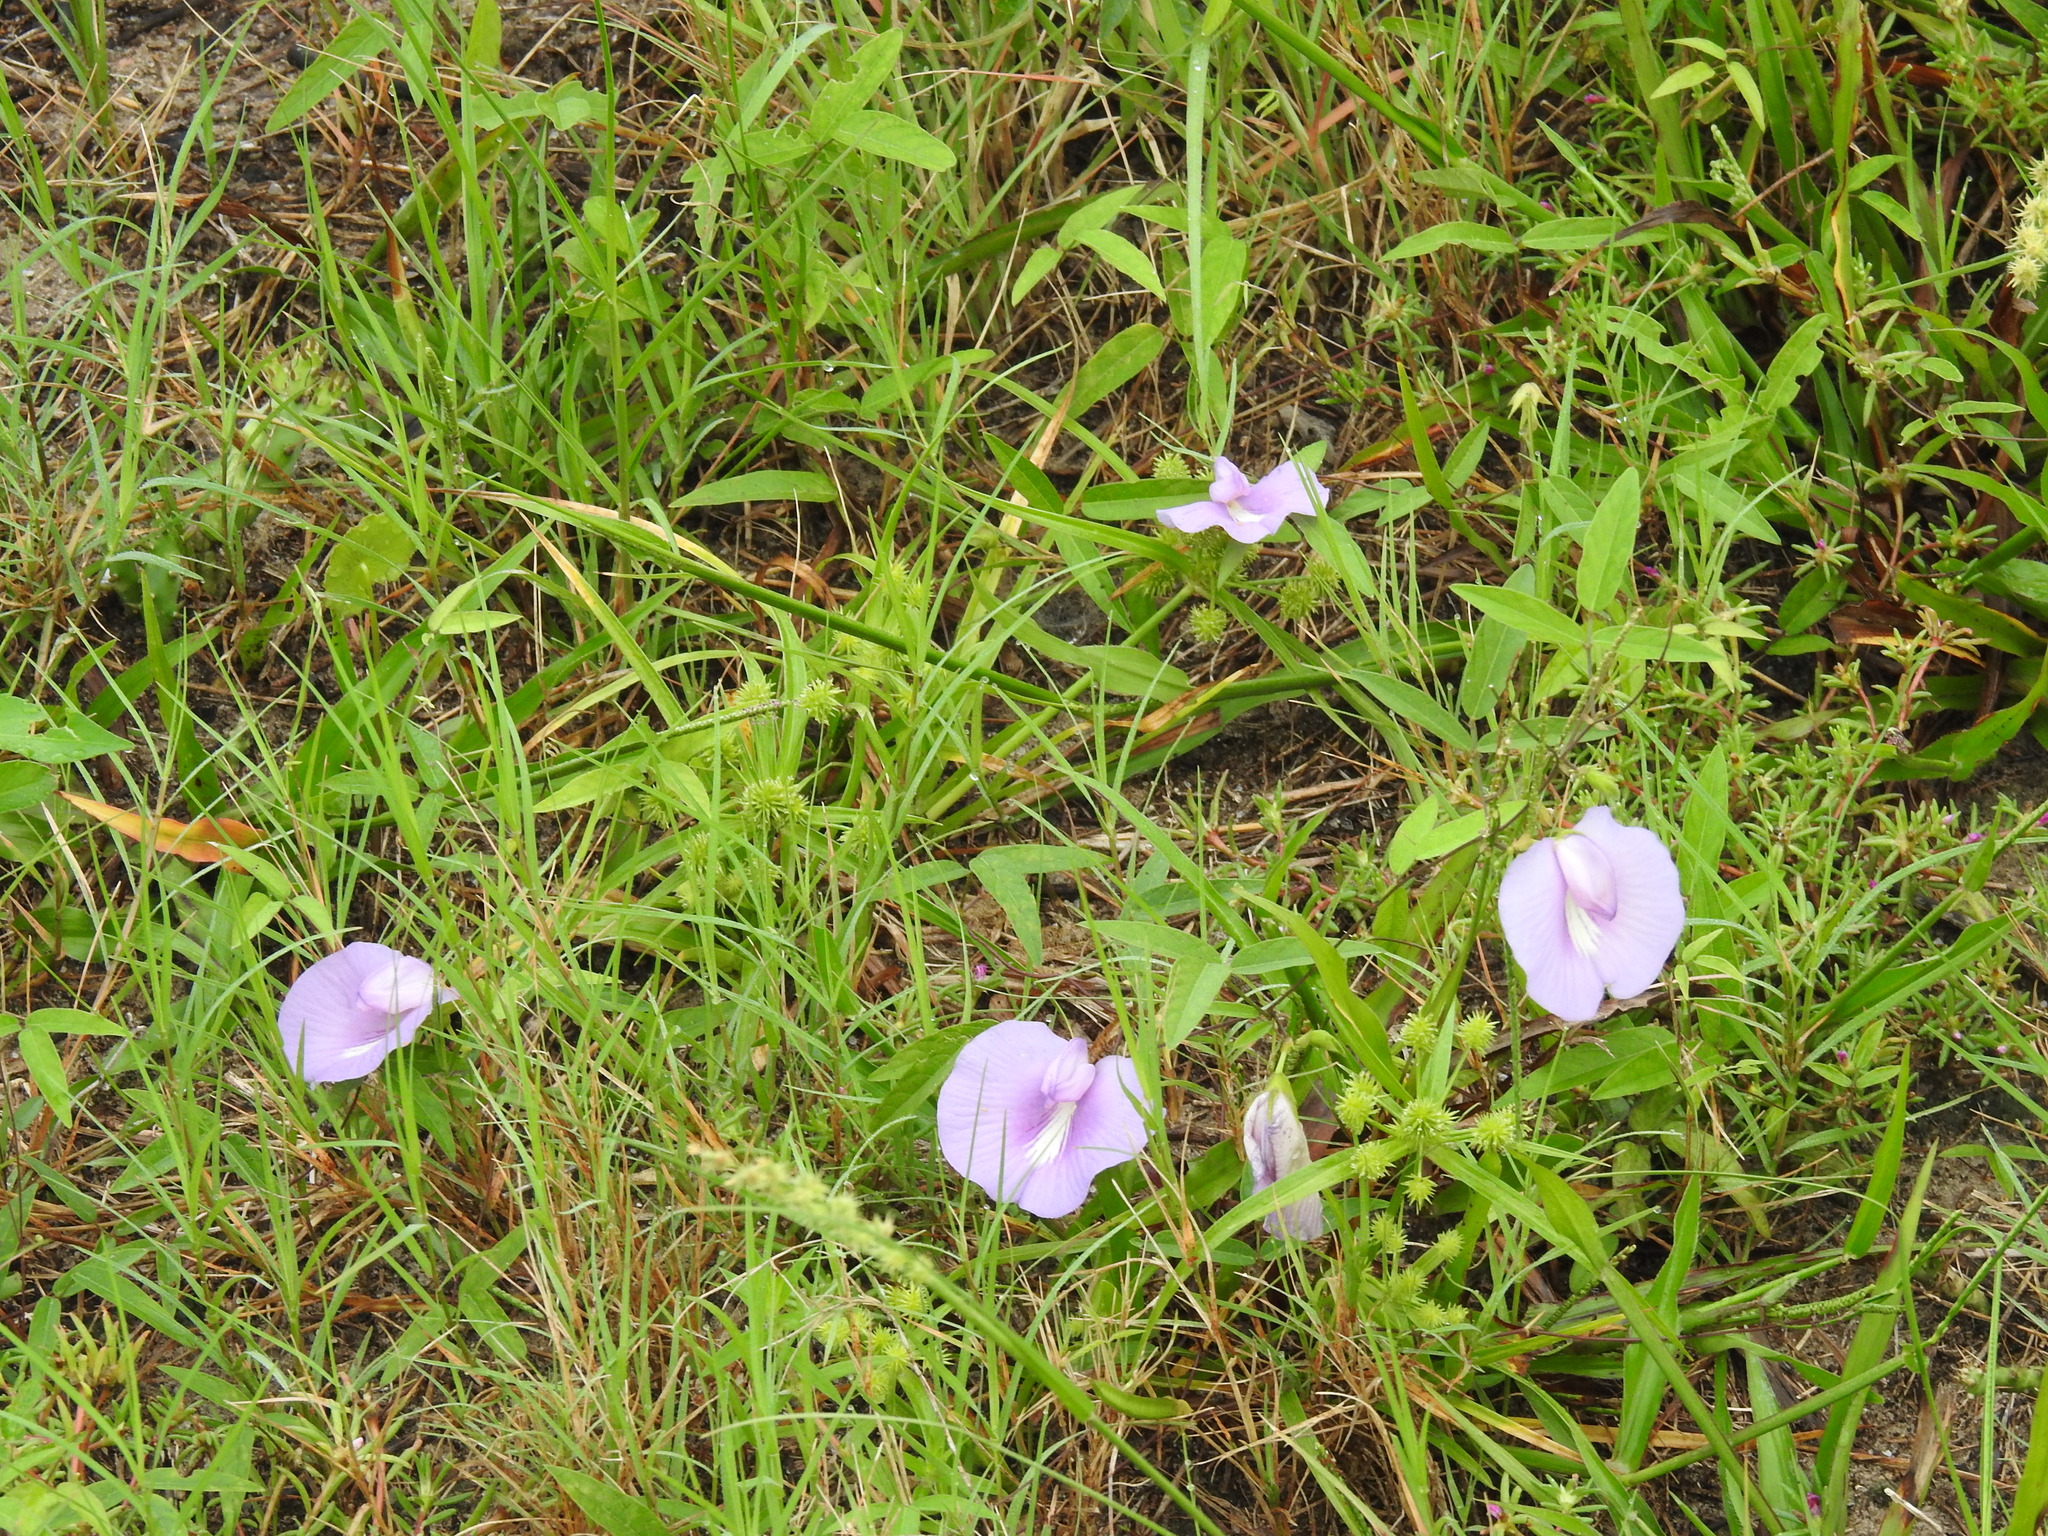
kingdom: Plantae
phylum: Tracheophyta
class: Magnoliopsida
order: Fabales
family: Fabaceae
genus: Centrosema
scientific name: Centrosema virginianum
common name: Butterfly-pea
